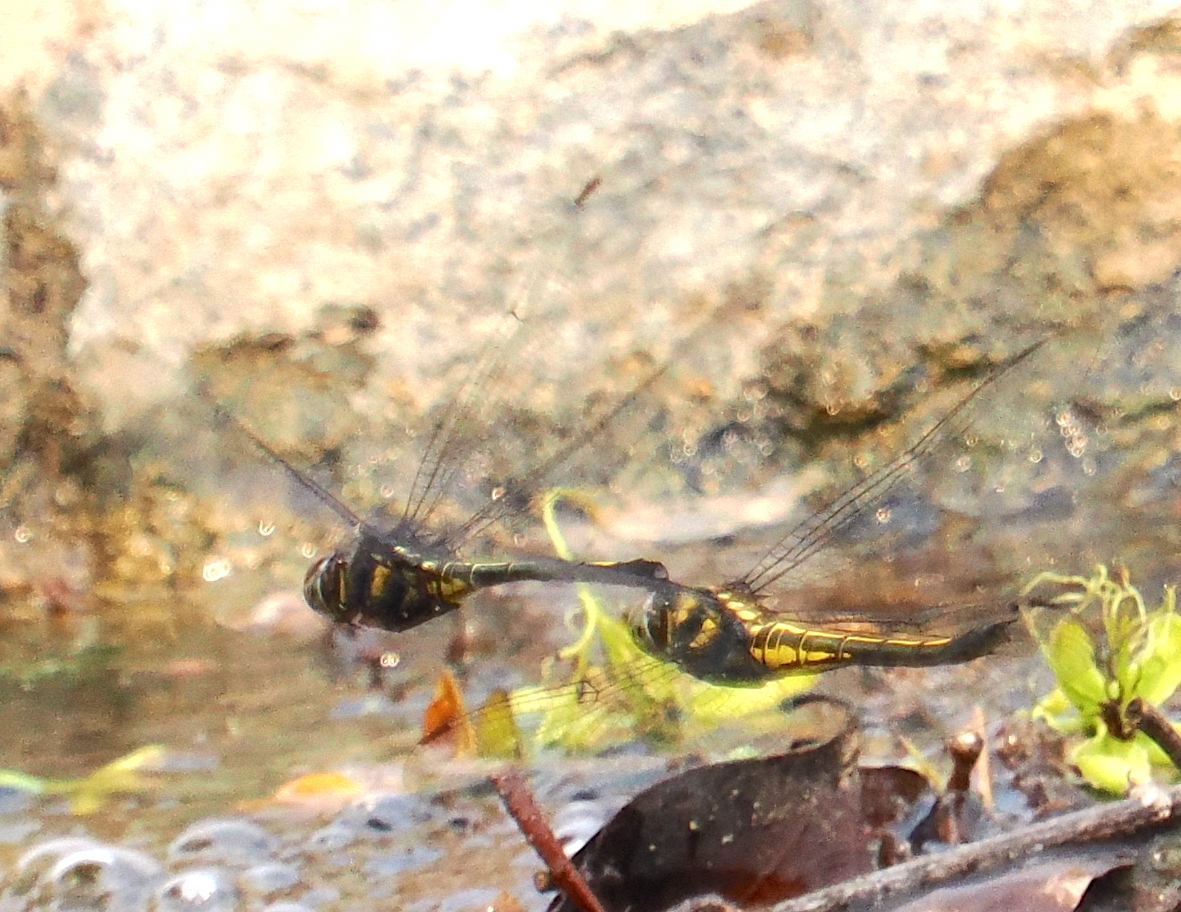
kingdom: Animalia
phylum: Arthropoda
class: Insecta
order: Odonata
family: Libellulidae
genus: Zygonyx
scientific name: Zygonyx iris
